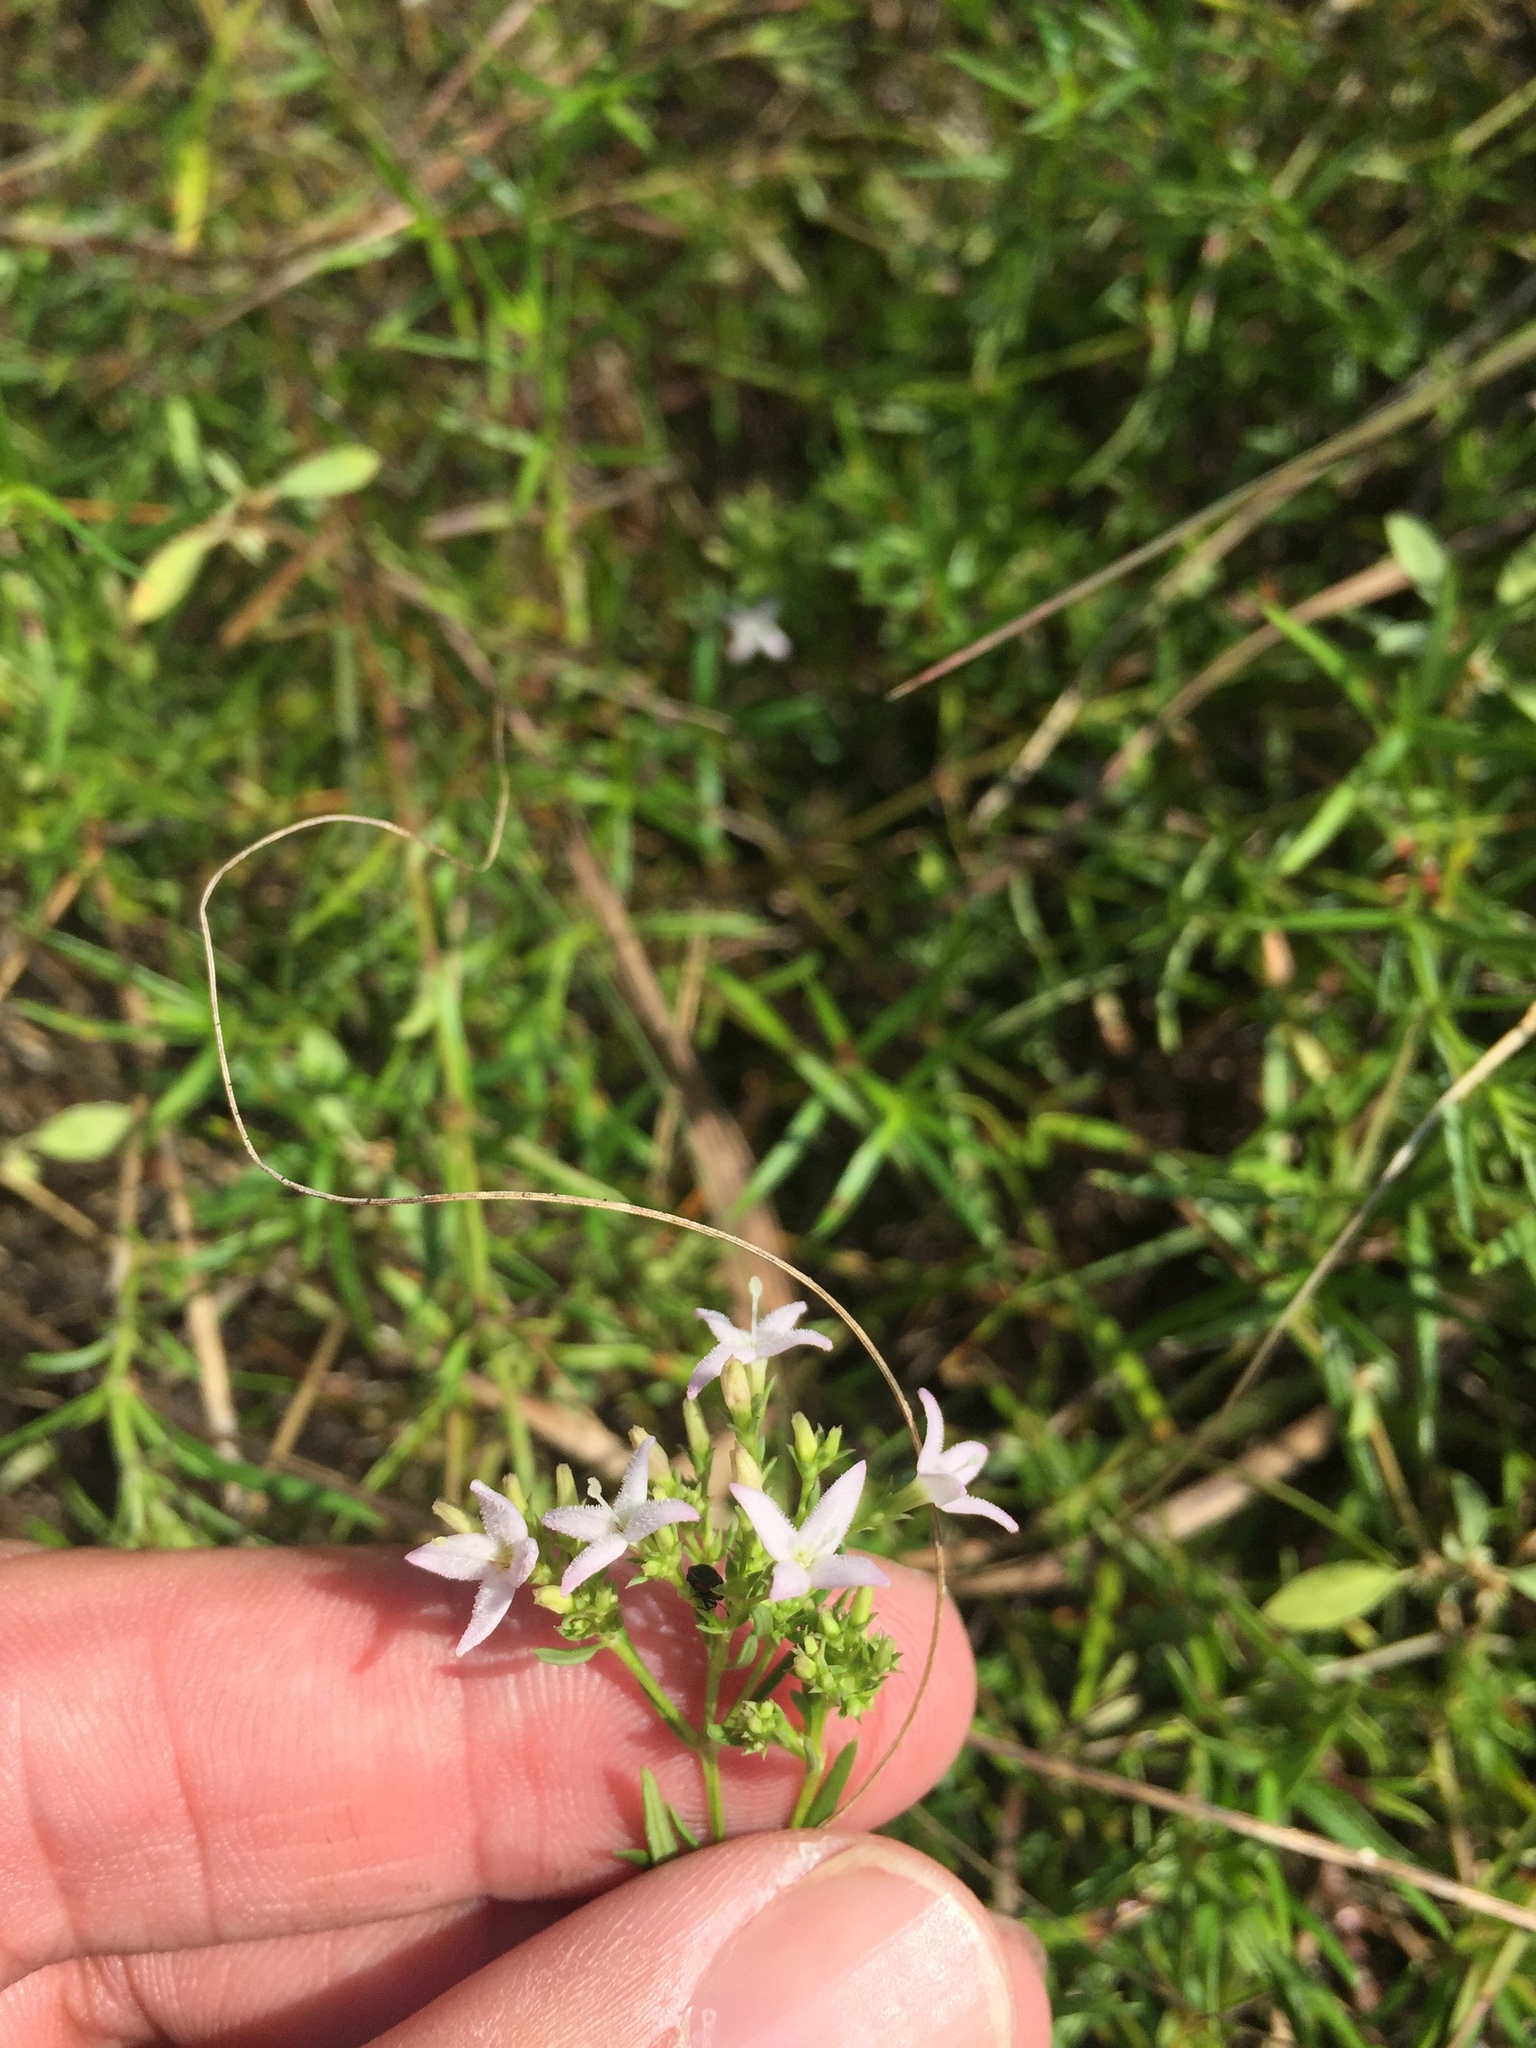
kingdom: Plantae
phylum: Tracheophyta
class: Magnoliopsida
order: Gentianales
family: Rubiaceae
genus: Stenaria
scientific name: Stenaria nigricans
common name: Diamondflowers
